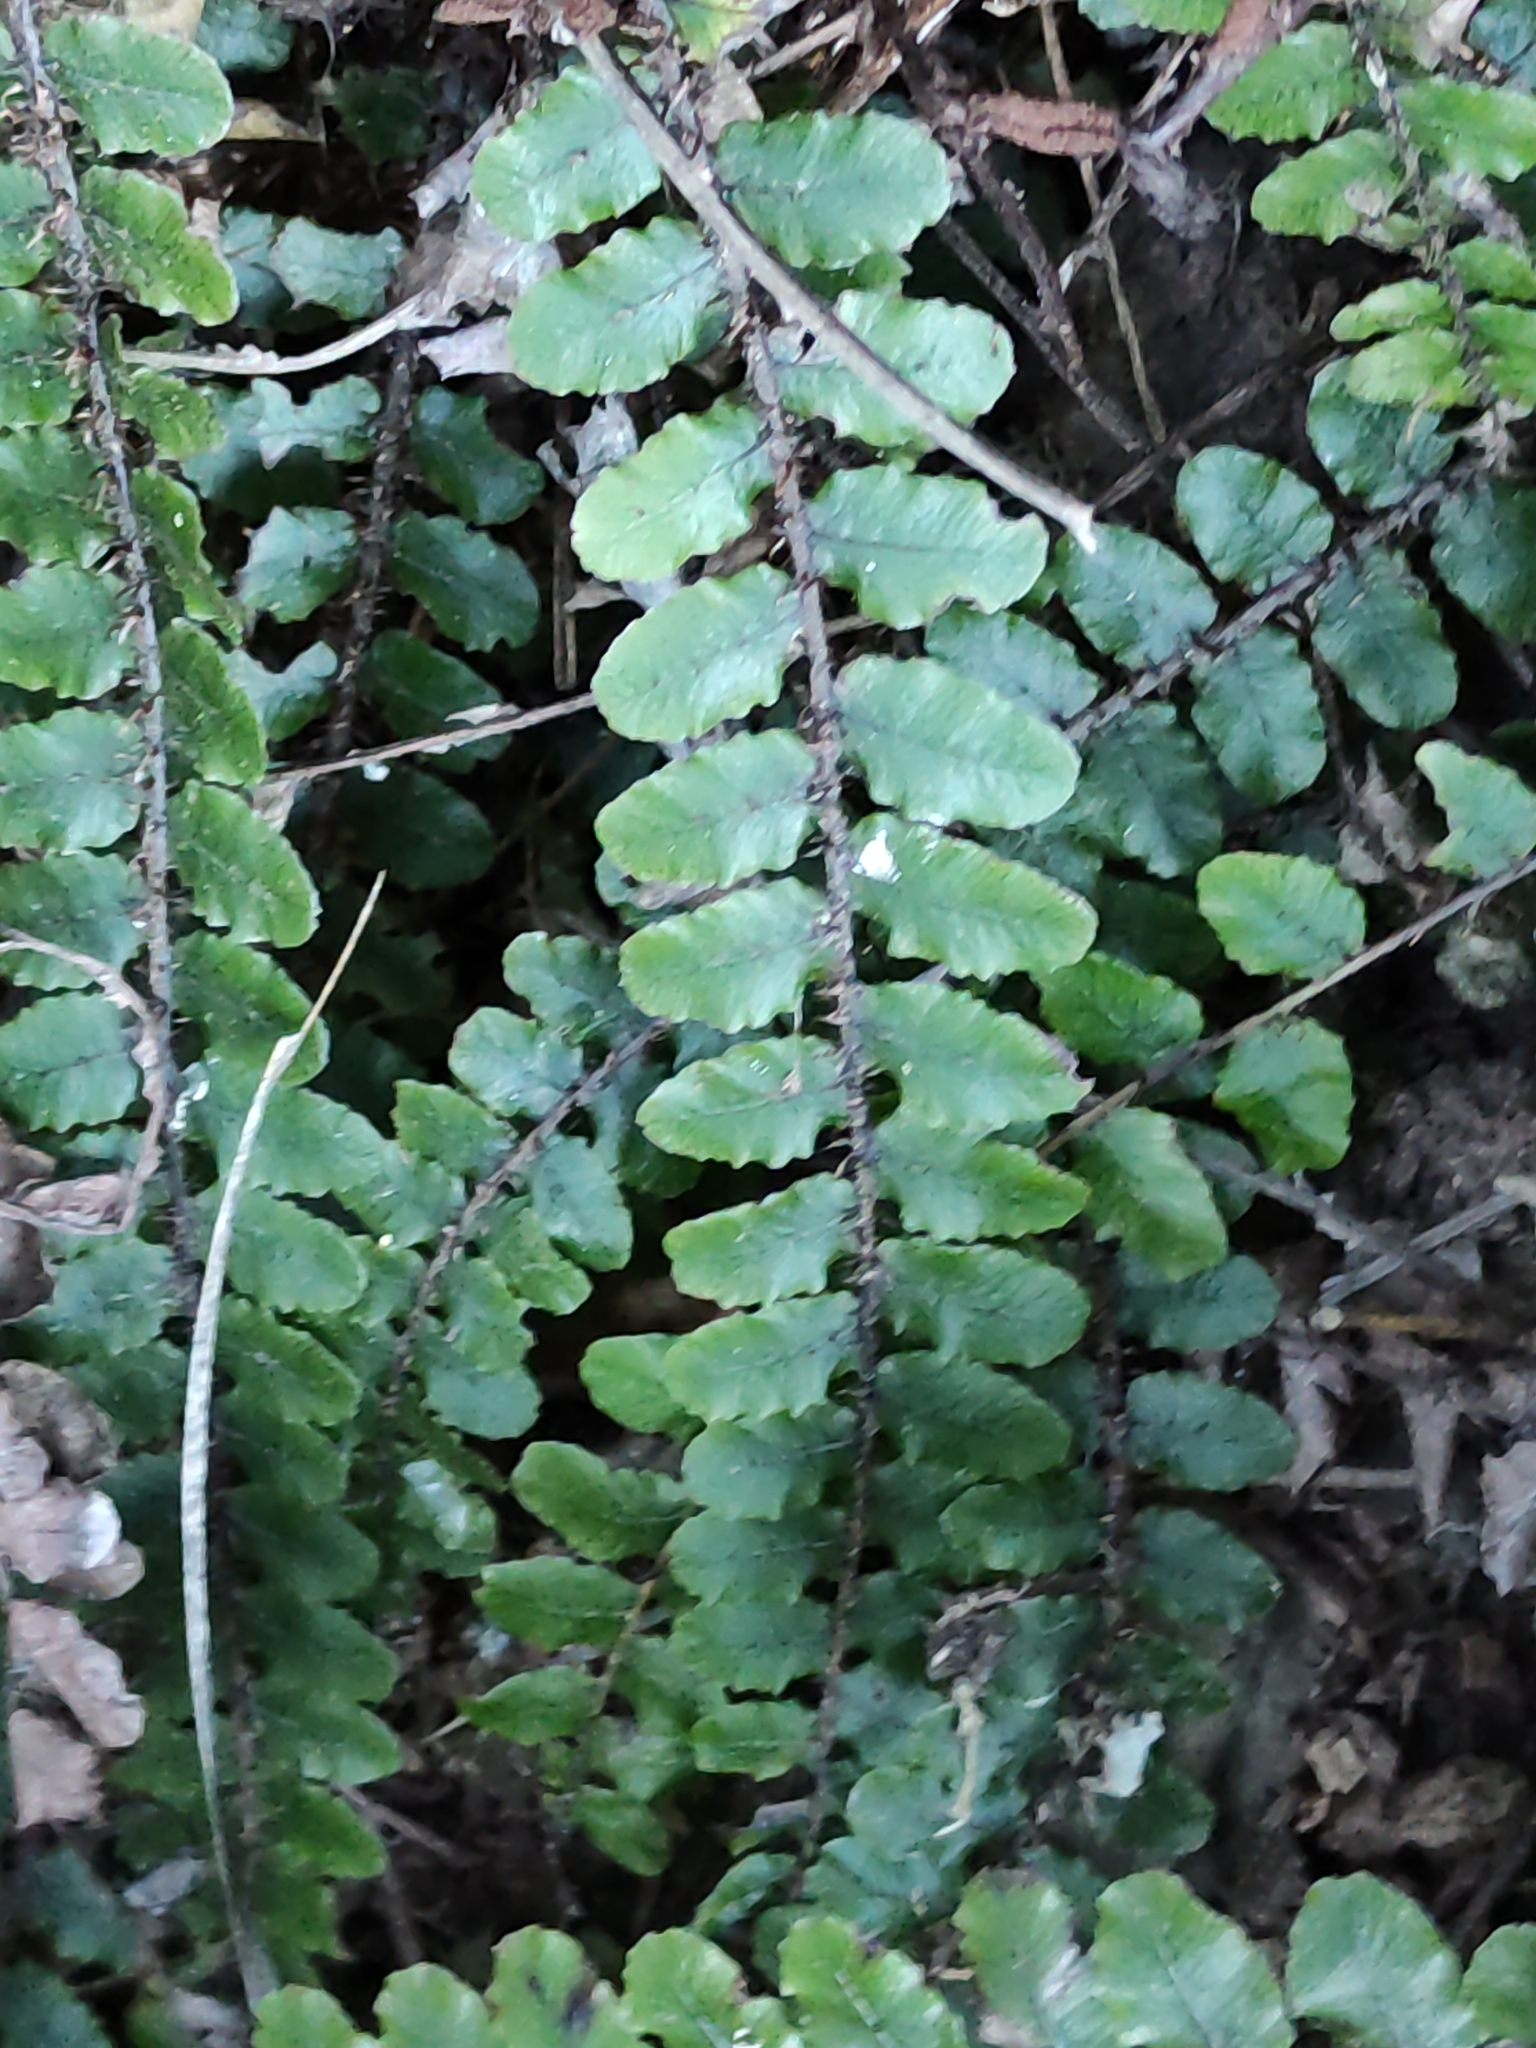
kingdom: Plantae
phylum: Tracheophyta
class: Polypodiopsida
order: Polypodiales
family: Blechnaceae
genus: Cranfillia
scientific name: Cranfillia fluviatilis
